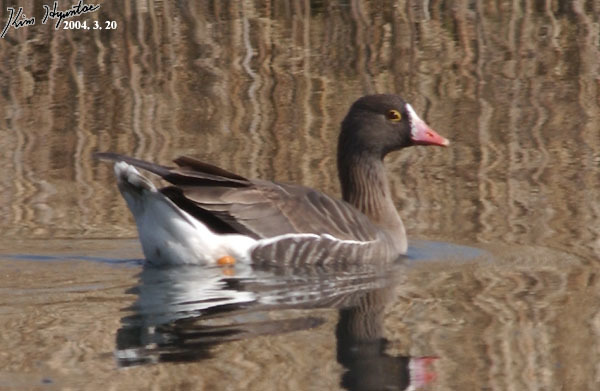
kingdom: Animalia
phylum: Chordata
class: Aves
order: Anseriformes
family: Anatidae
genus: Anser
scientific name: Anser erythropus
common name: Lesser white-fronted goose
